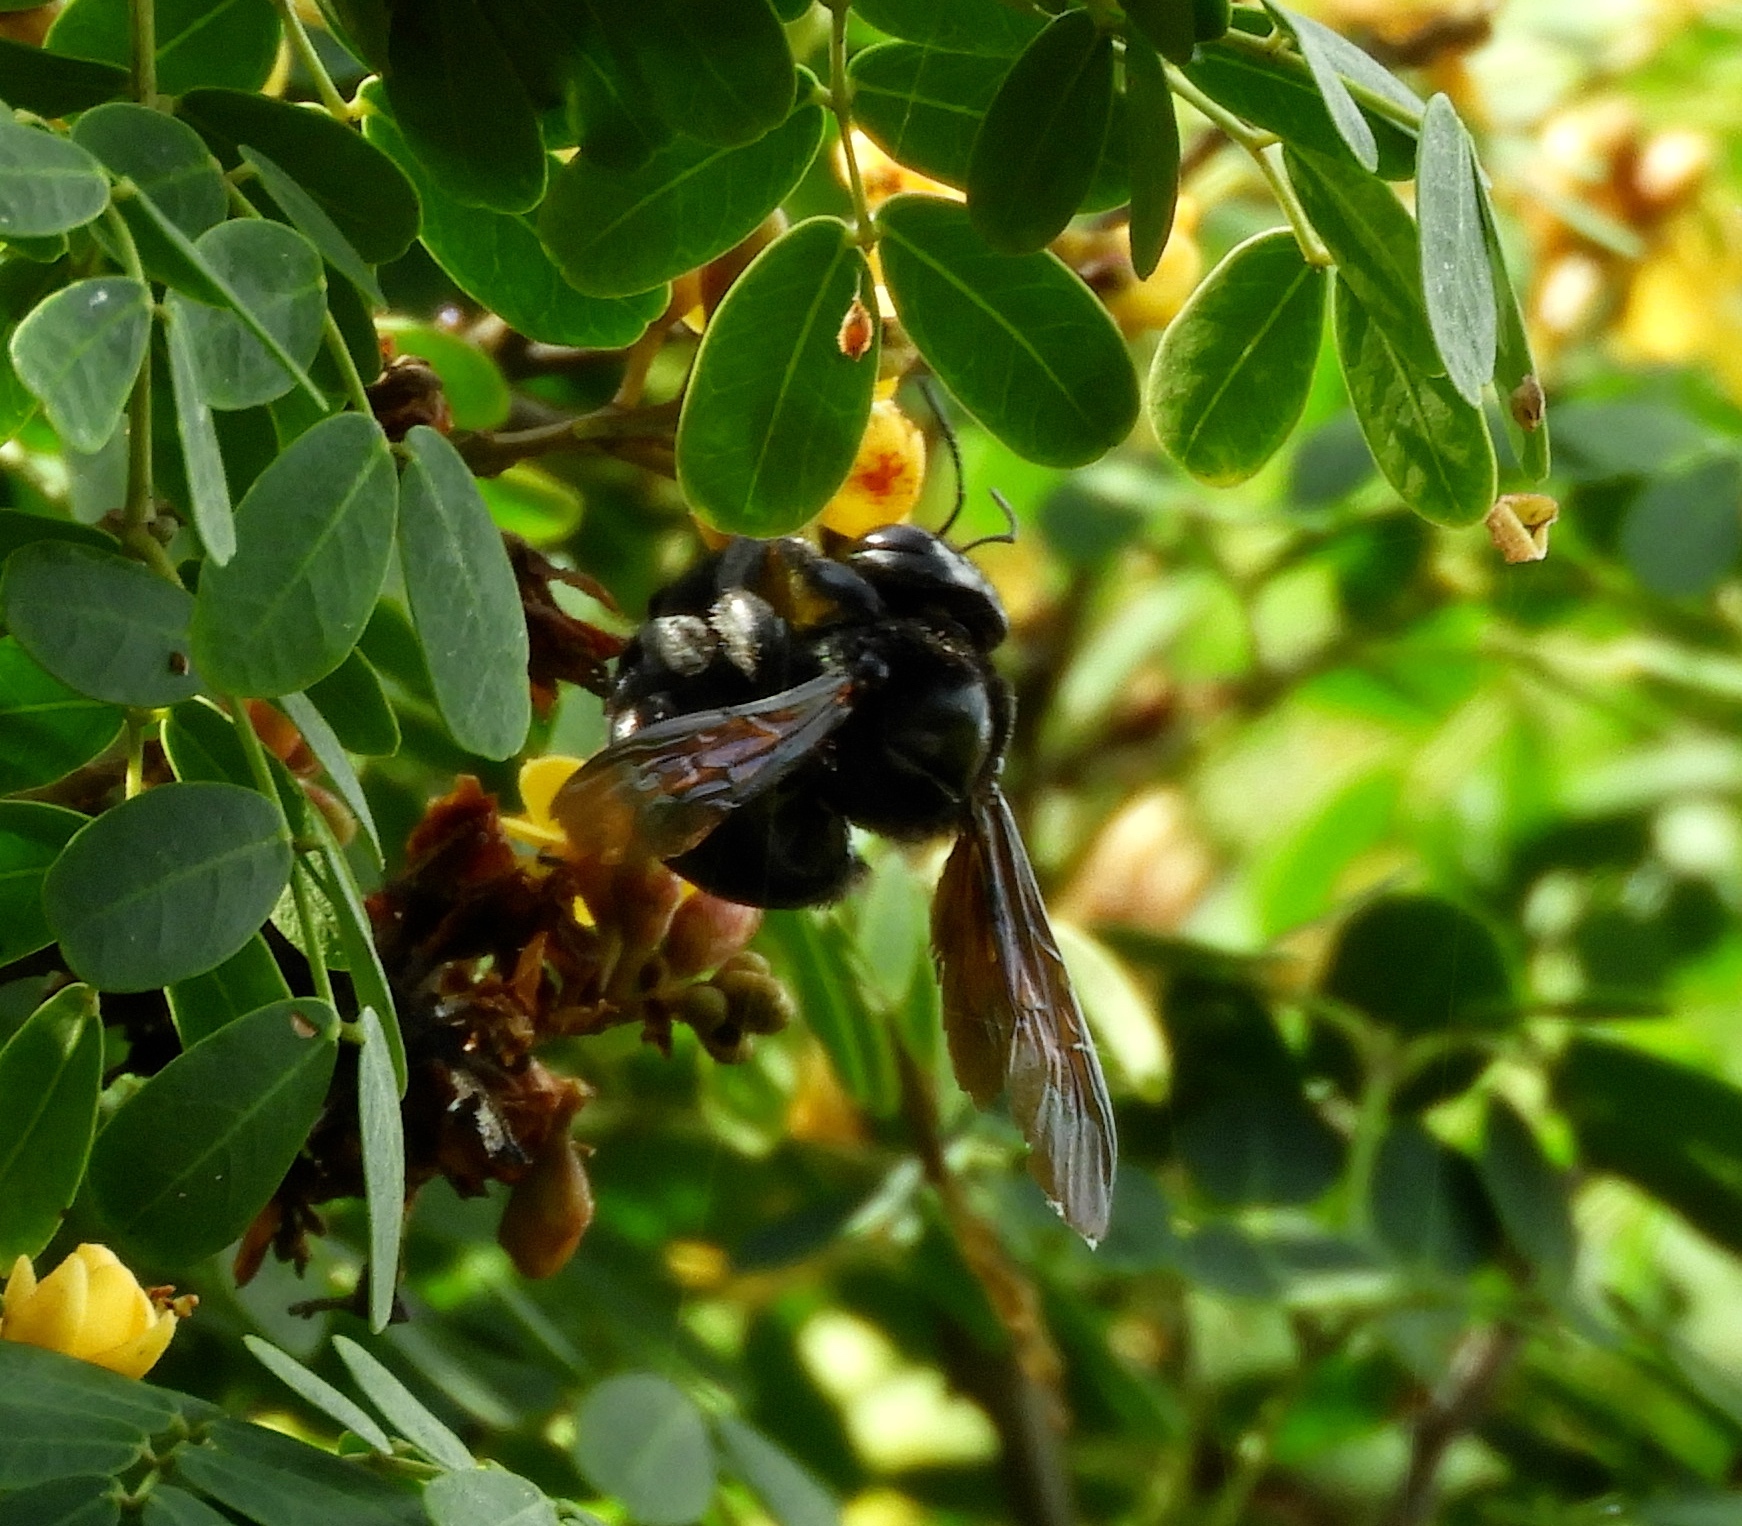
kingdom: Animalia
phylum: Arthropoda
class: Insecta
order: Hymenoptera
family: Apidae
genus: Xylocopa
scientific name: Xylocopa sonorina
